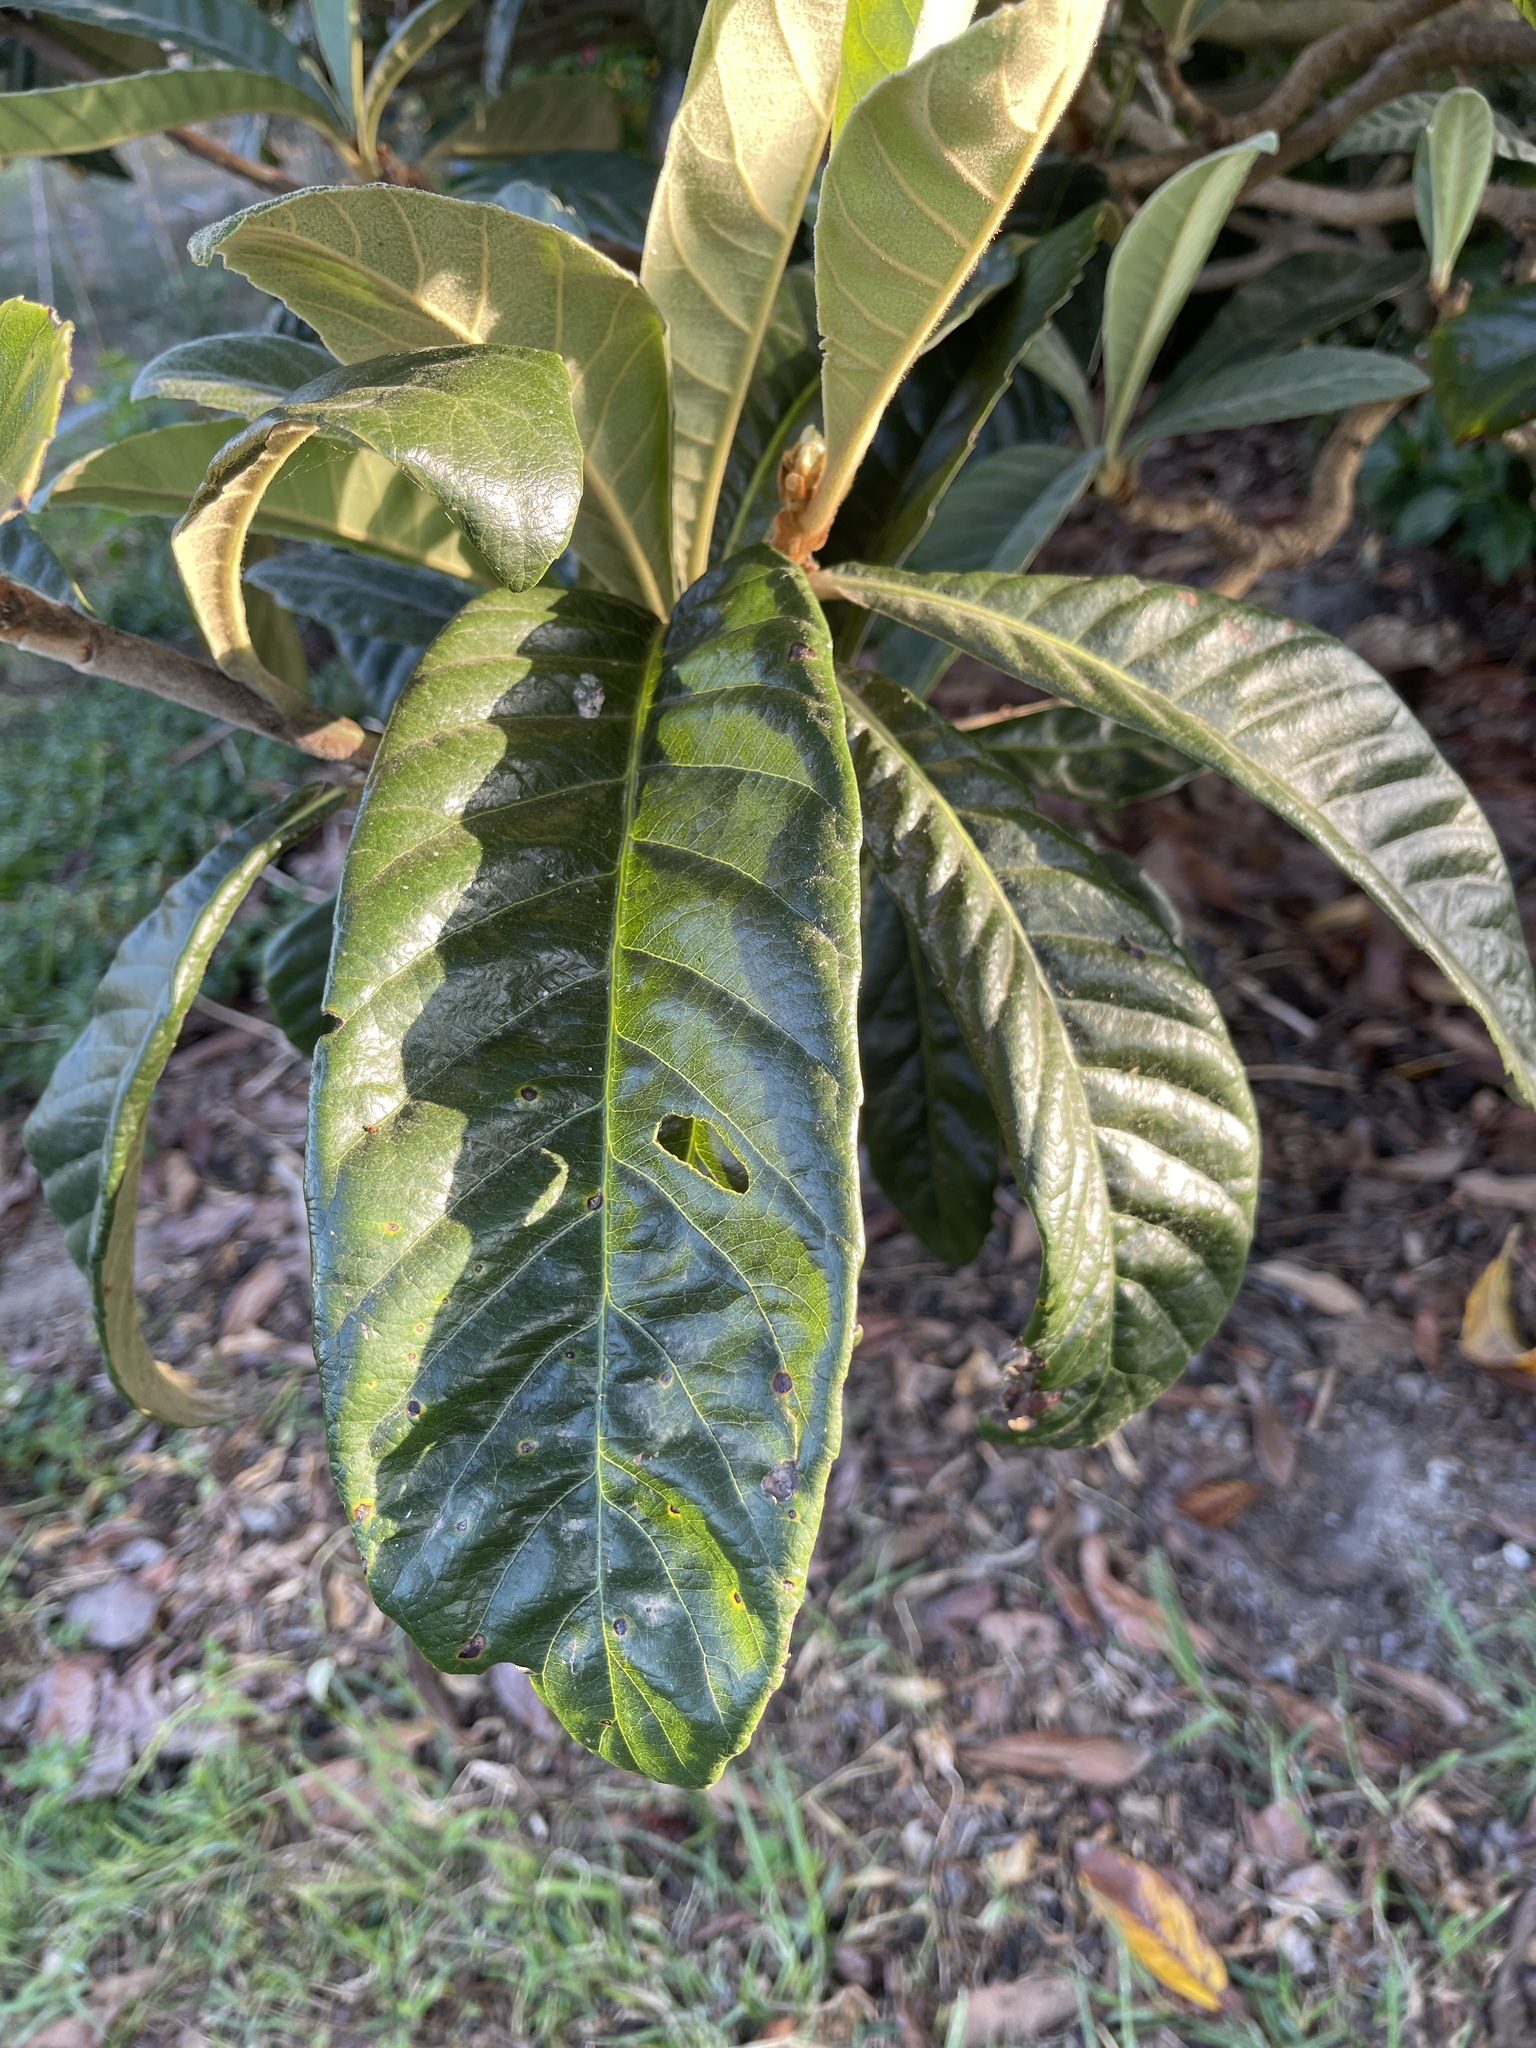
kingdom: Plantae
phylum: Tracheophyta
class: Magnoliopsida
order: Rosales
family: Rosaceae
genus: Rhaphiolepis
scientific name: Rhaphiolepis bibas
